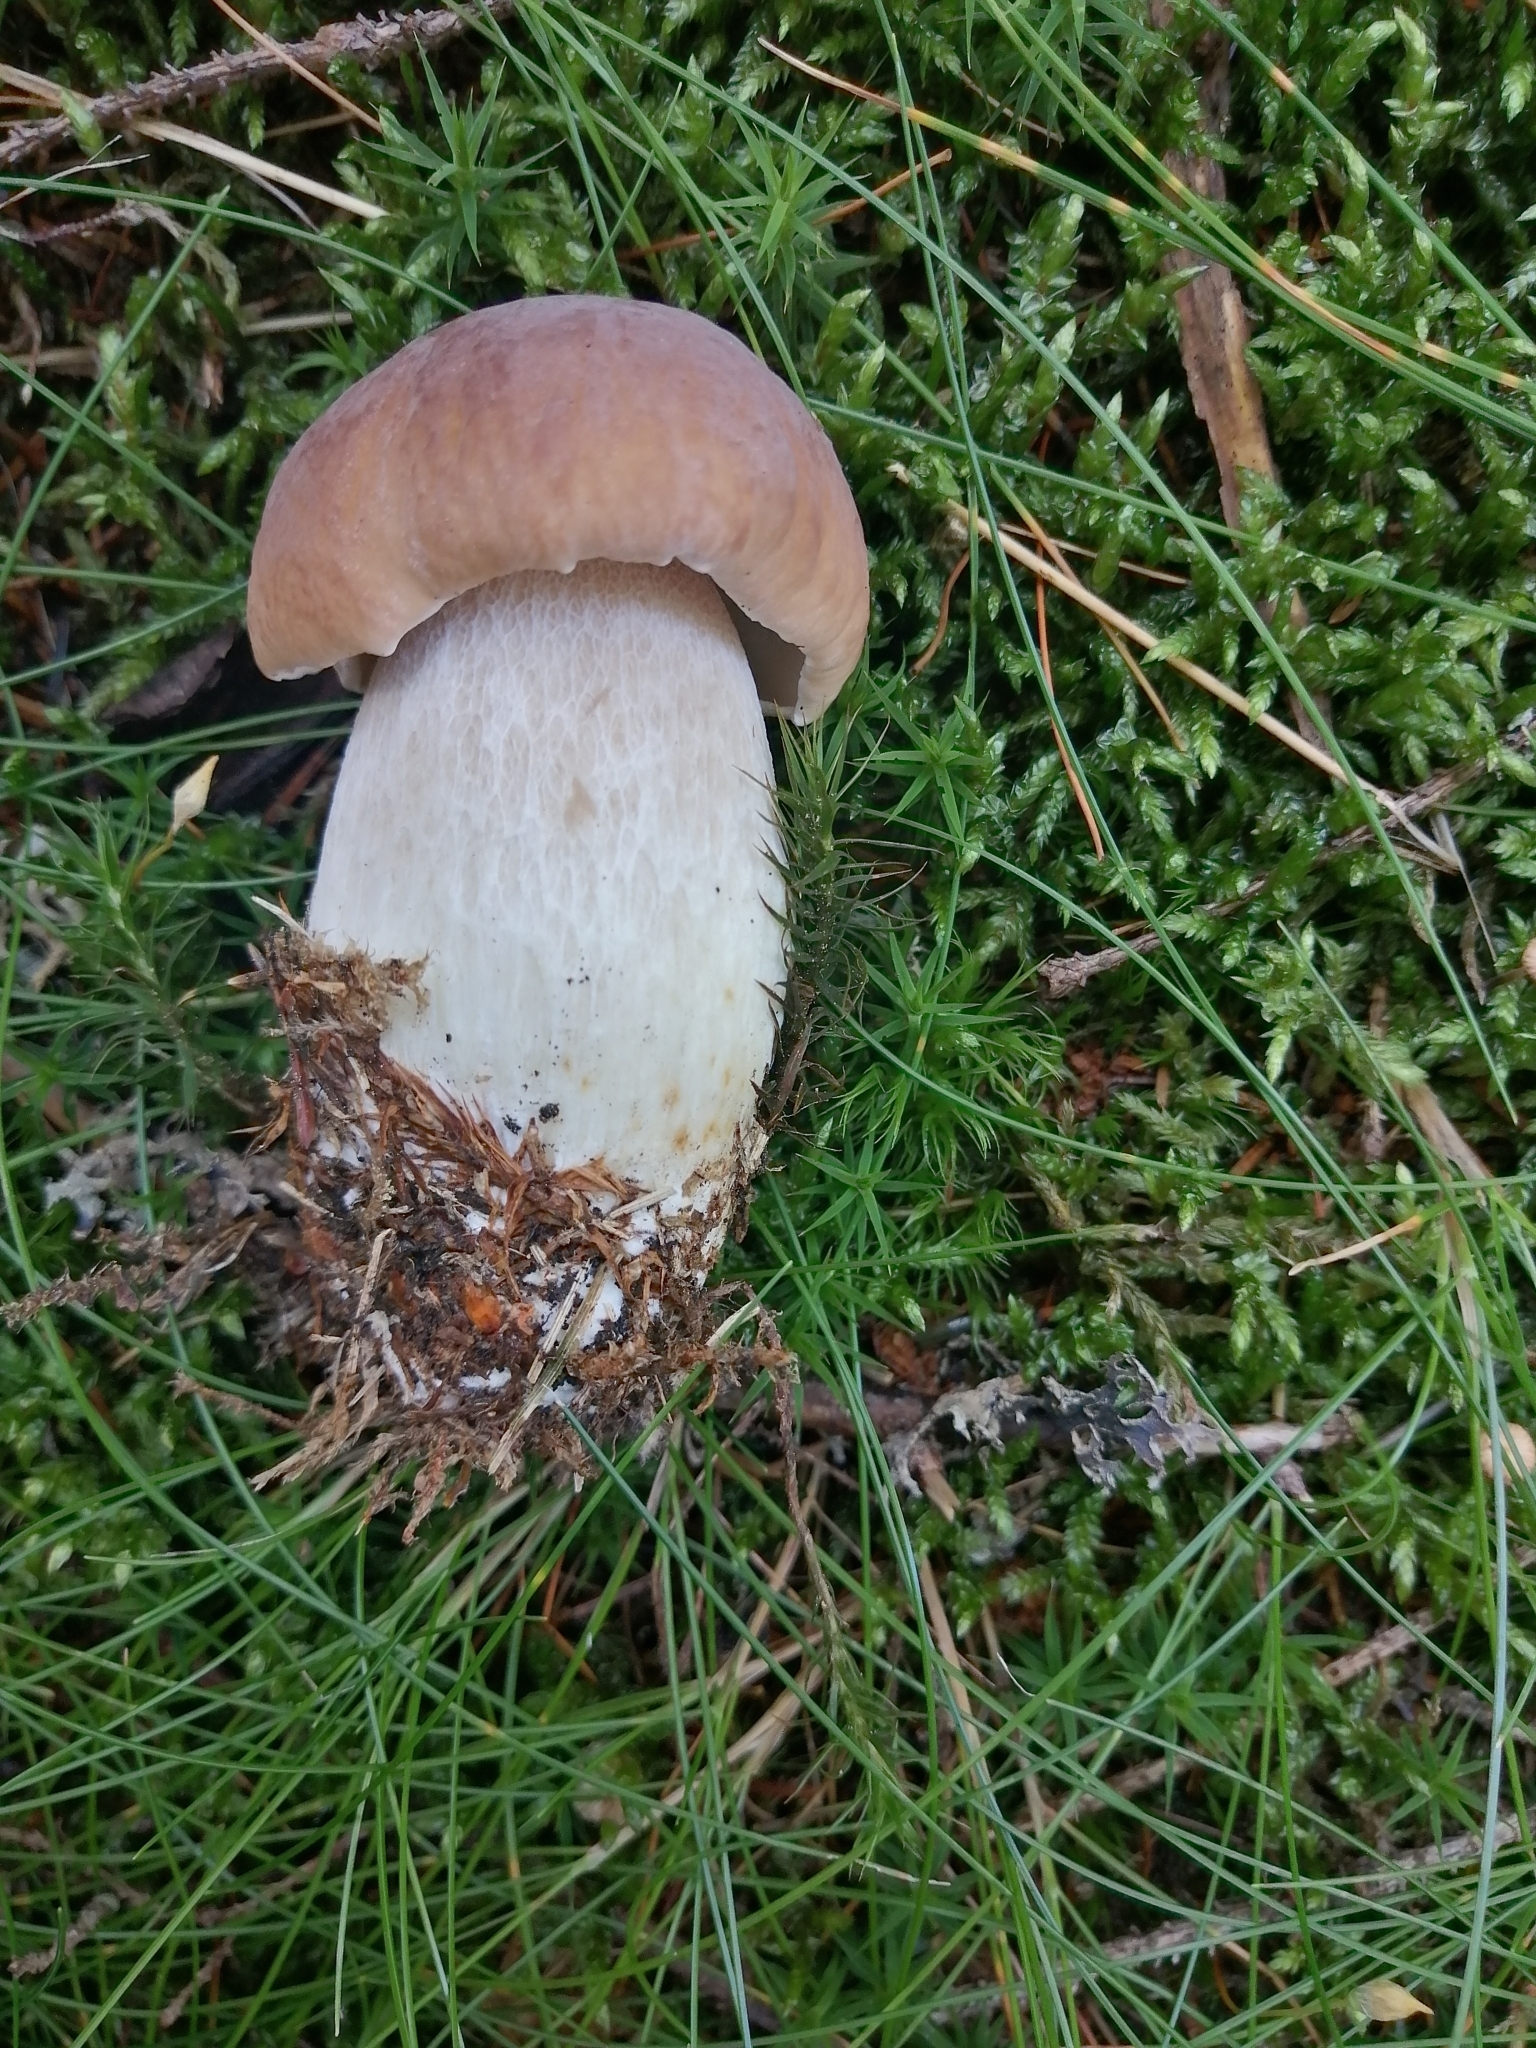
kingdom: Fungi
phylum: Basidiomycota
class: Agaricomycetes
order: Boletales
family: Boletaceae
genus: Boletus
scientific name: Boletus edulis
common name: Cep
